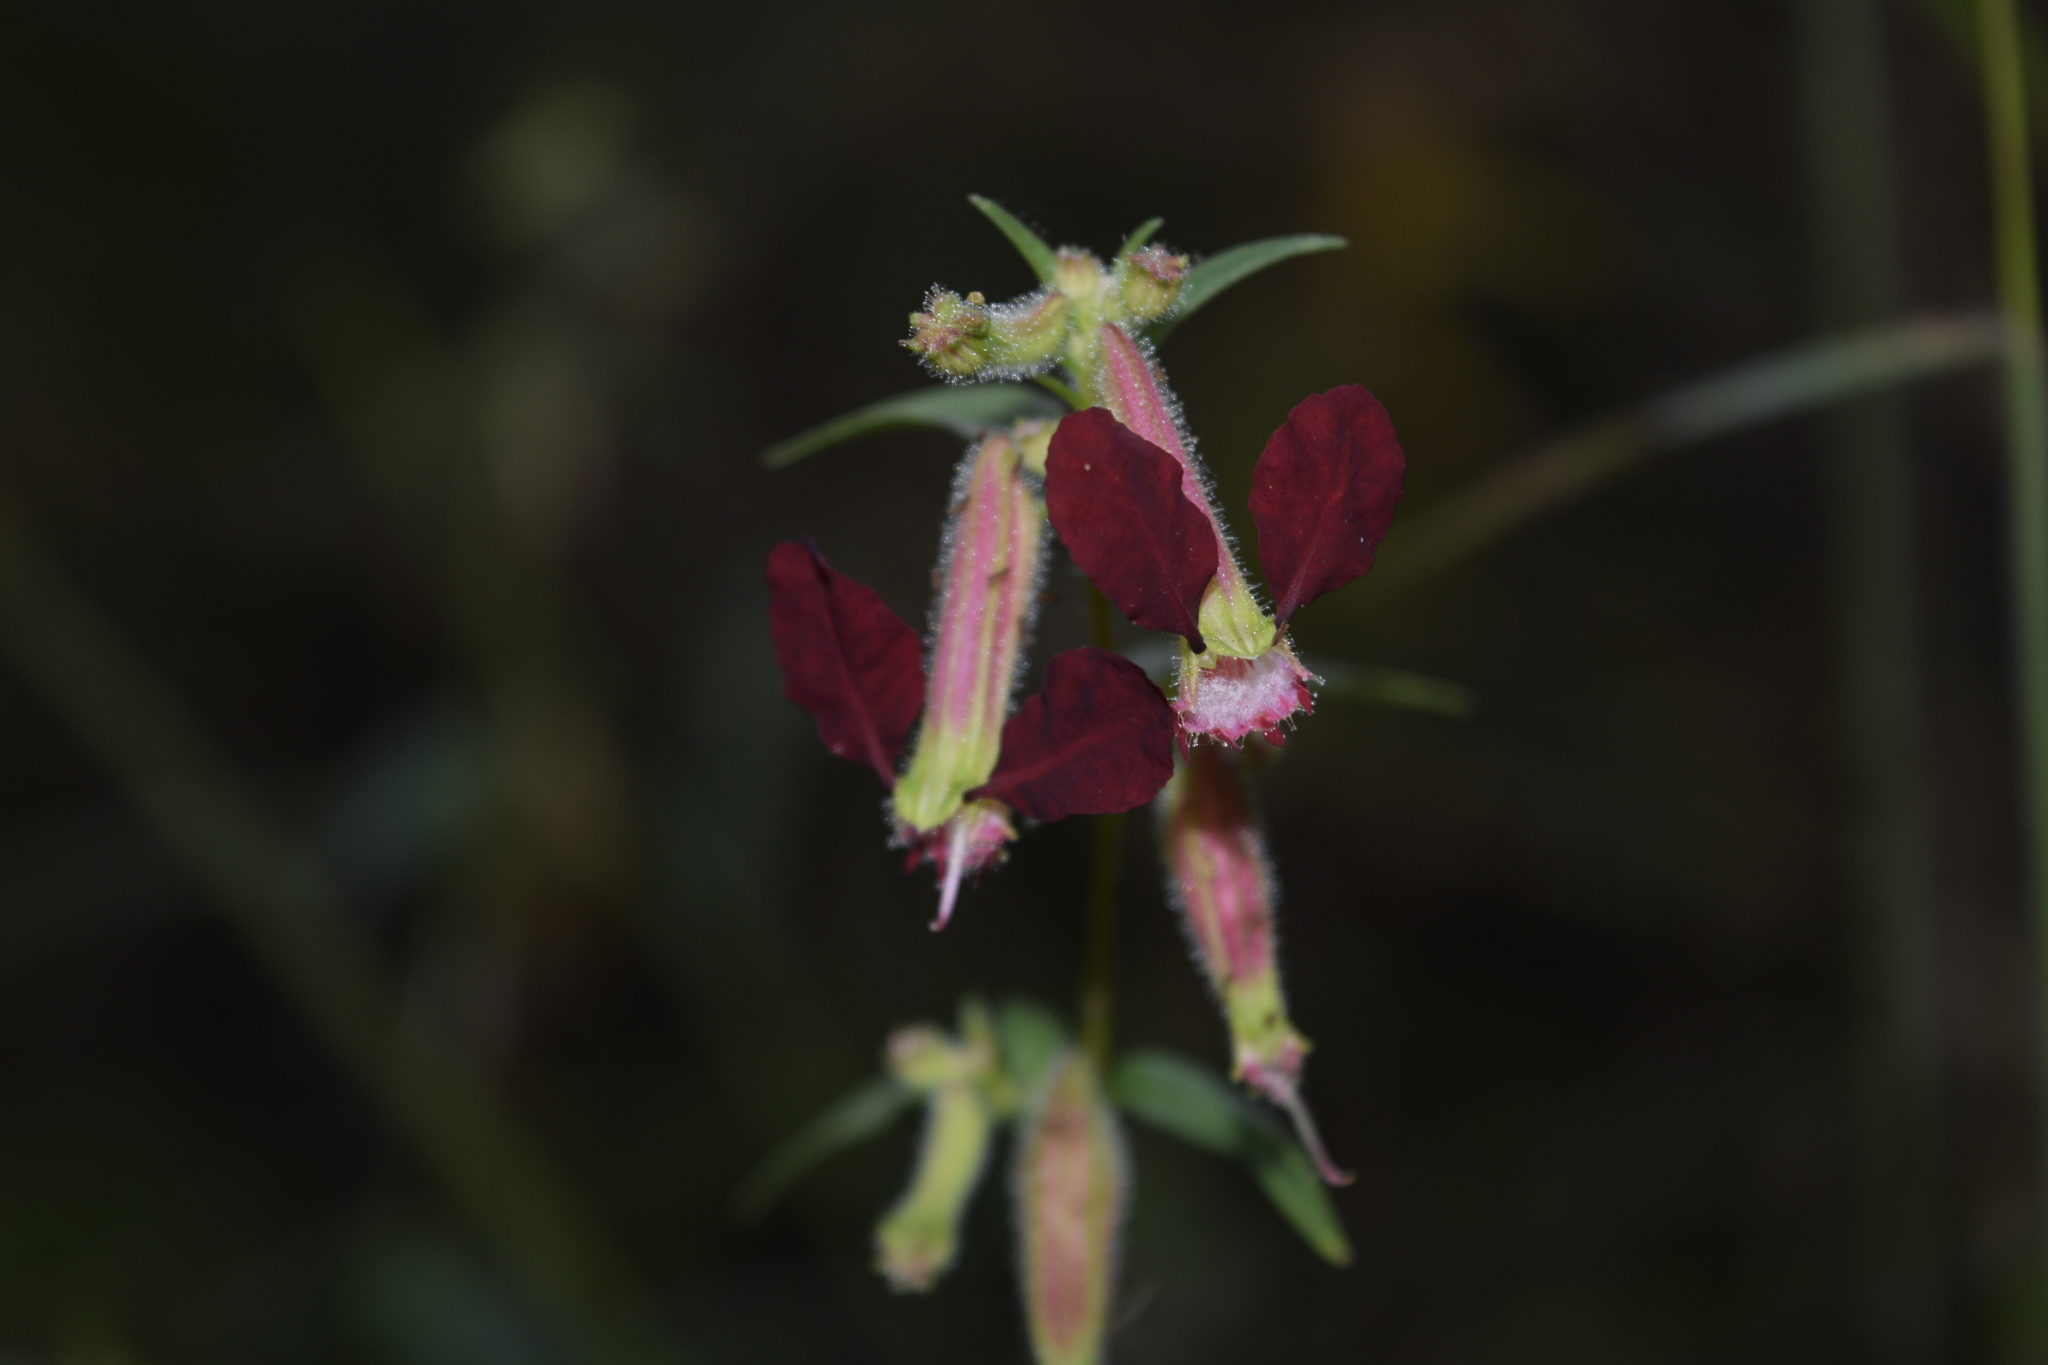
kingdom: Plantae
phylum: Tracheophyta
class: Magnoliopsida
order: Myrtales
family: Lythraceae
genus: Cuphea
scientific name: Cuphea hookeriana
